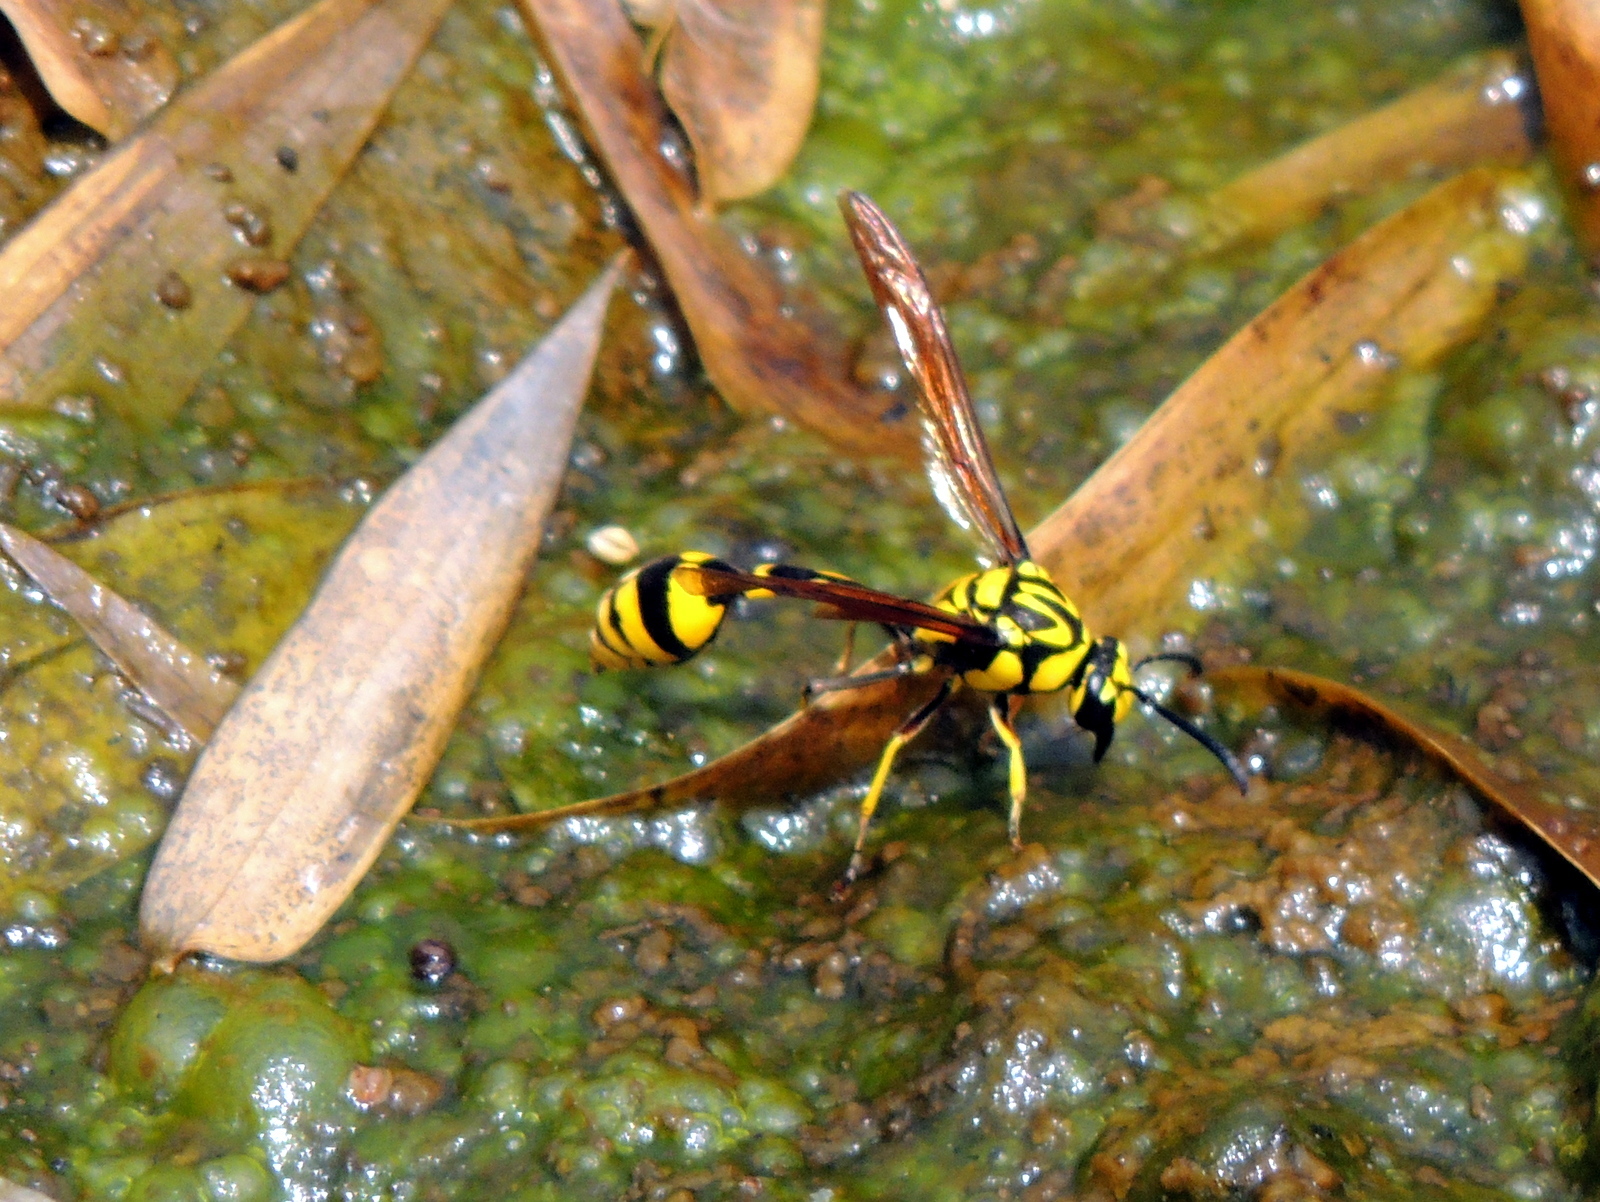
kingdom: Animalia
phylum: Arthropoda
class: Insecta
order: Hymenoptera
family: Eumenidae
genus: Phimenes
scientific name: Phimenes flavopictus
